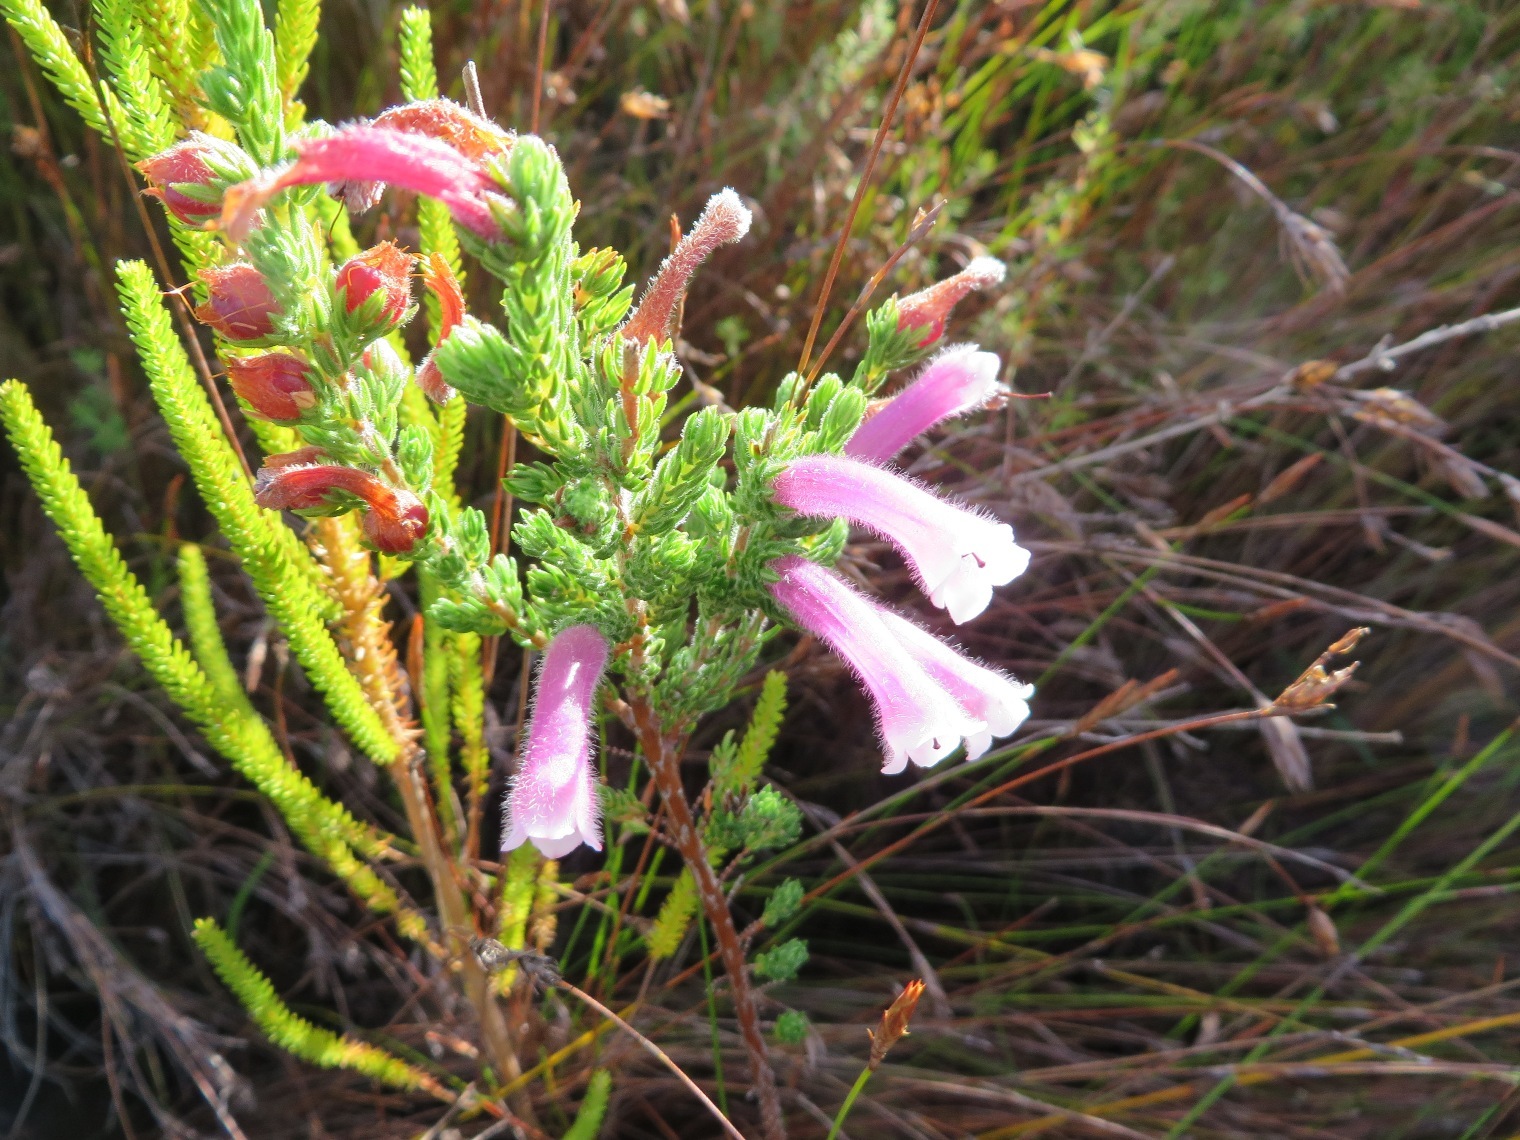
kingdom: Plantae
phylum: Tracheophyta
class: Magnoliopsida
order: Ericales
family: Ericaceae
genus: Erica
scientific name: Erica macowanii
